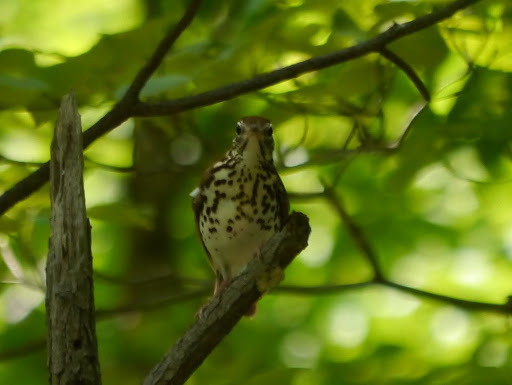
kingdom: Animalia
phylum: Chordata
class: Aves
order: Passeriformes
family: Turdidae
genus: Hylocichla
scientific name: Hylocichla mustelina
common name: Wood thrush
